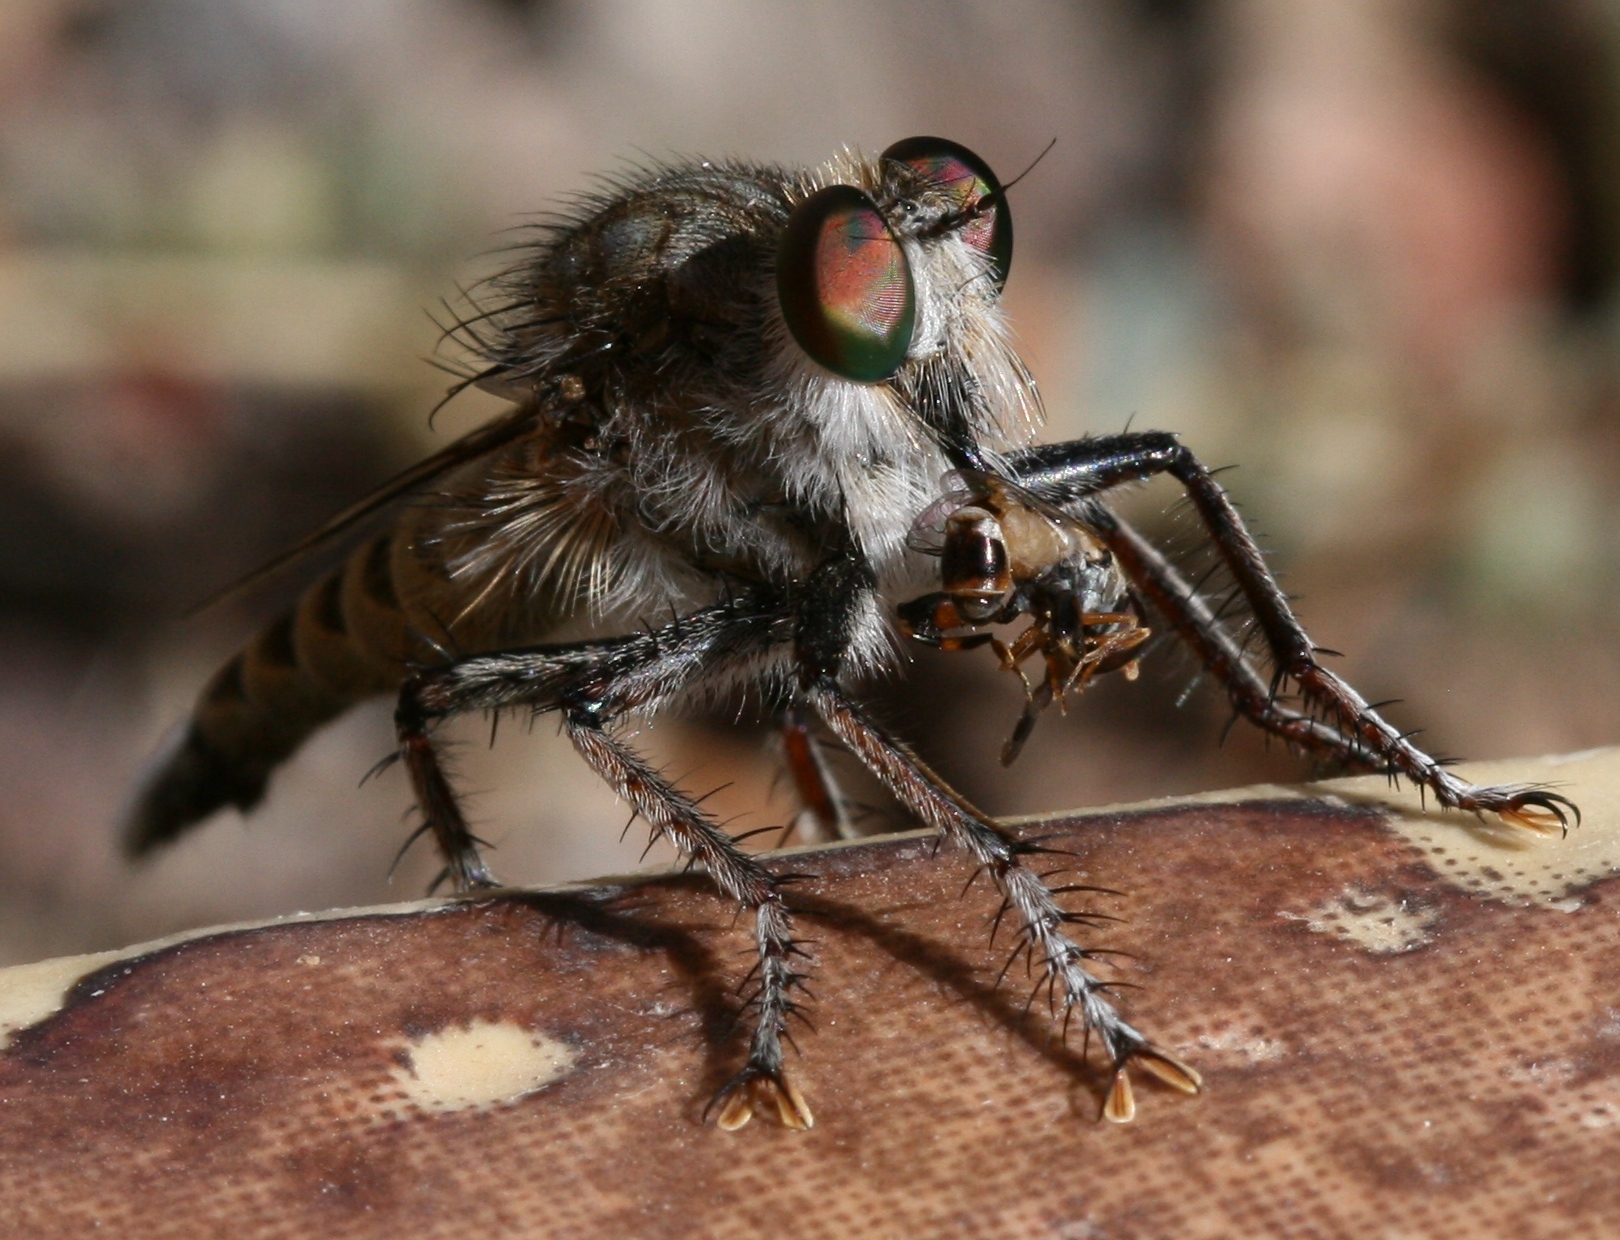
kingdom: Animalia
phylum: Arthropoda
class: Insecta
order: Diptera
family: Asilidae
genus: Promachus
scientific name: Promachus consanguineus
